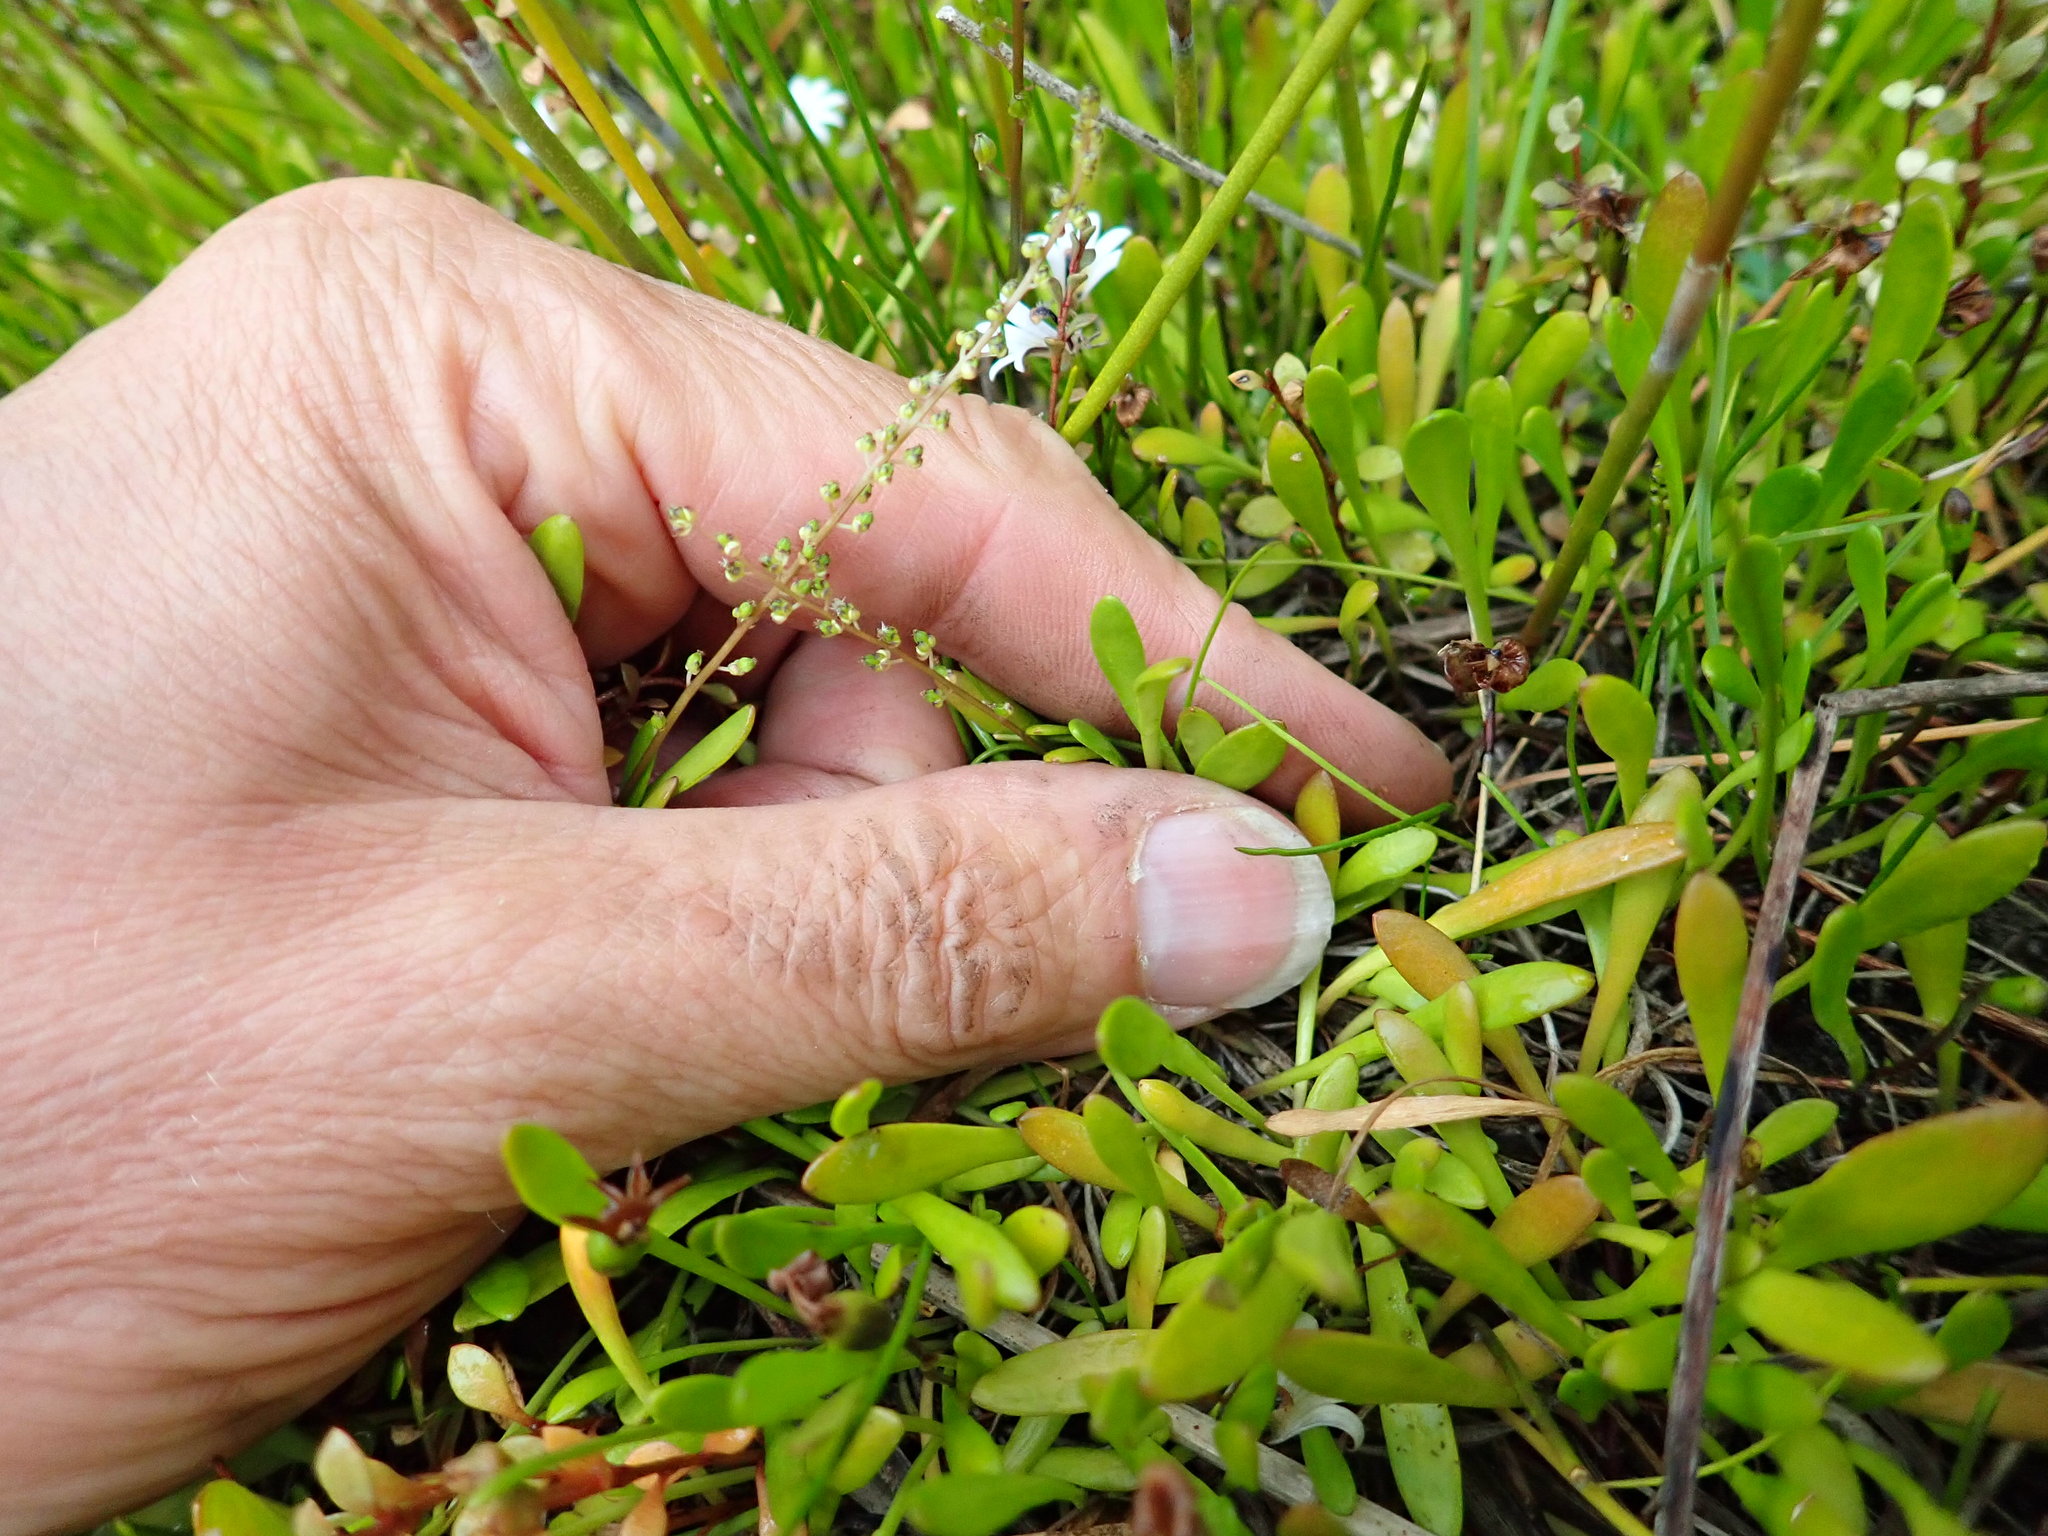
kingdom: Plantae
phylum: Tracheophyta
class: Liliopsida
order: Alismatales
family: Juncaginaceae
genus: Triglochin
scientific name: Triglochin striata
